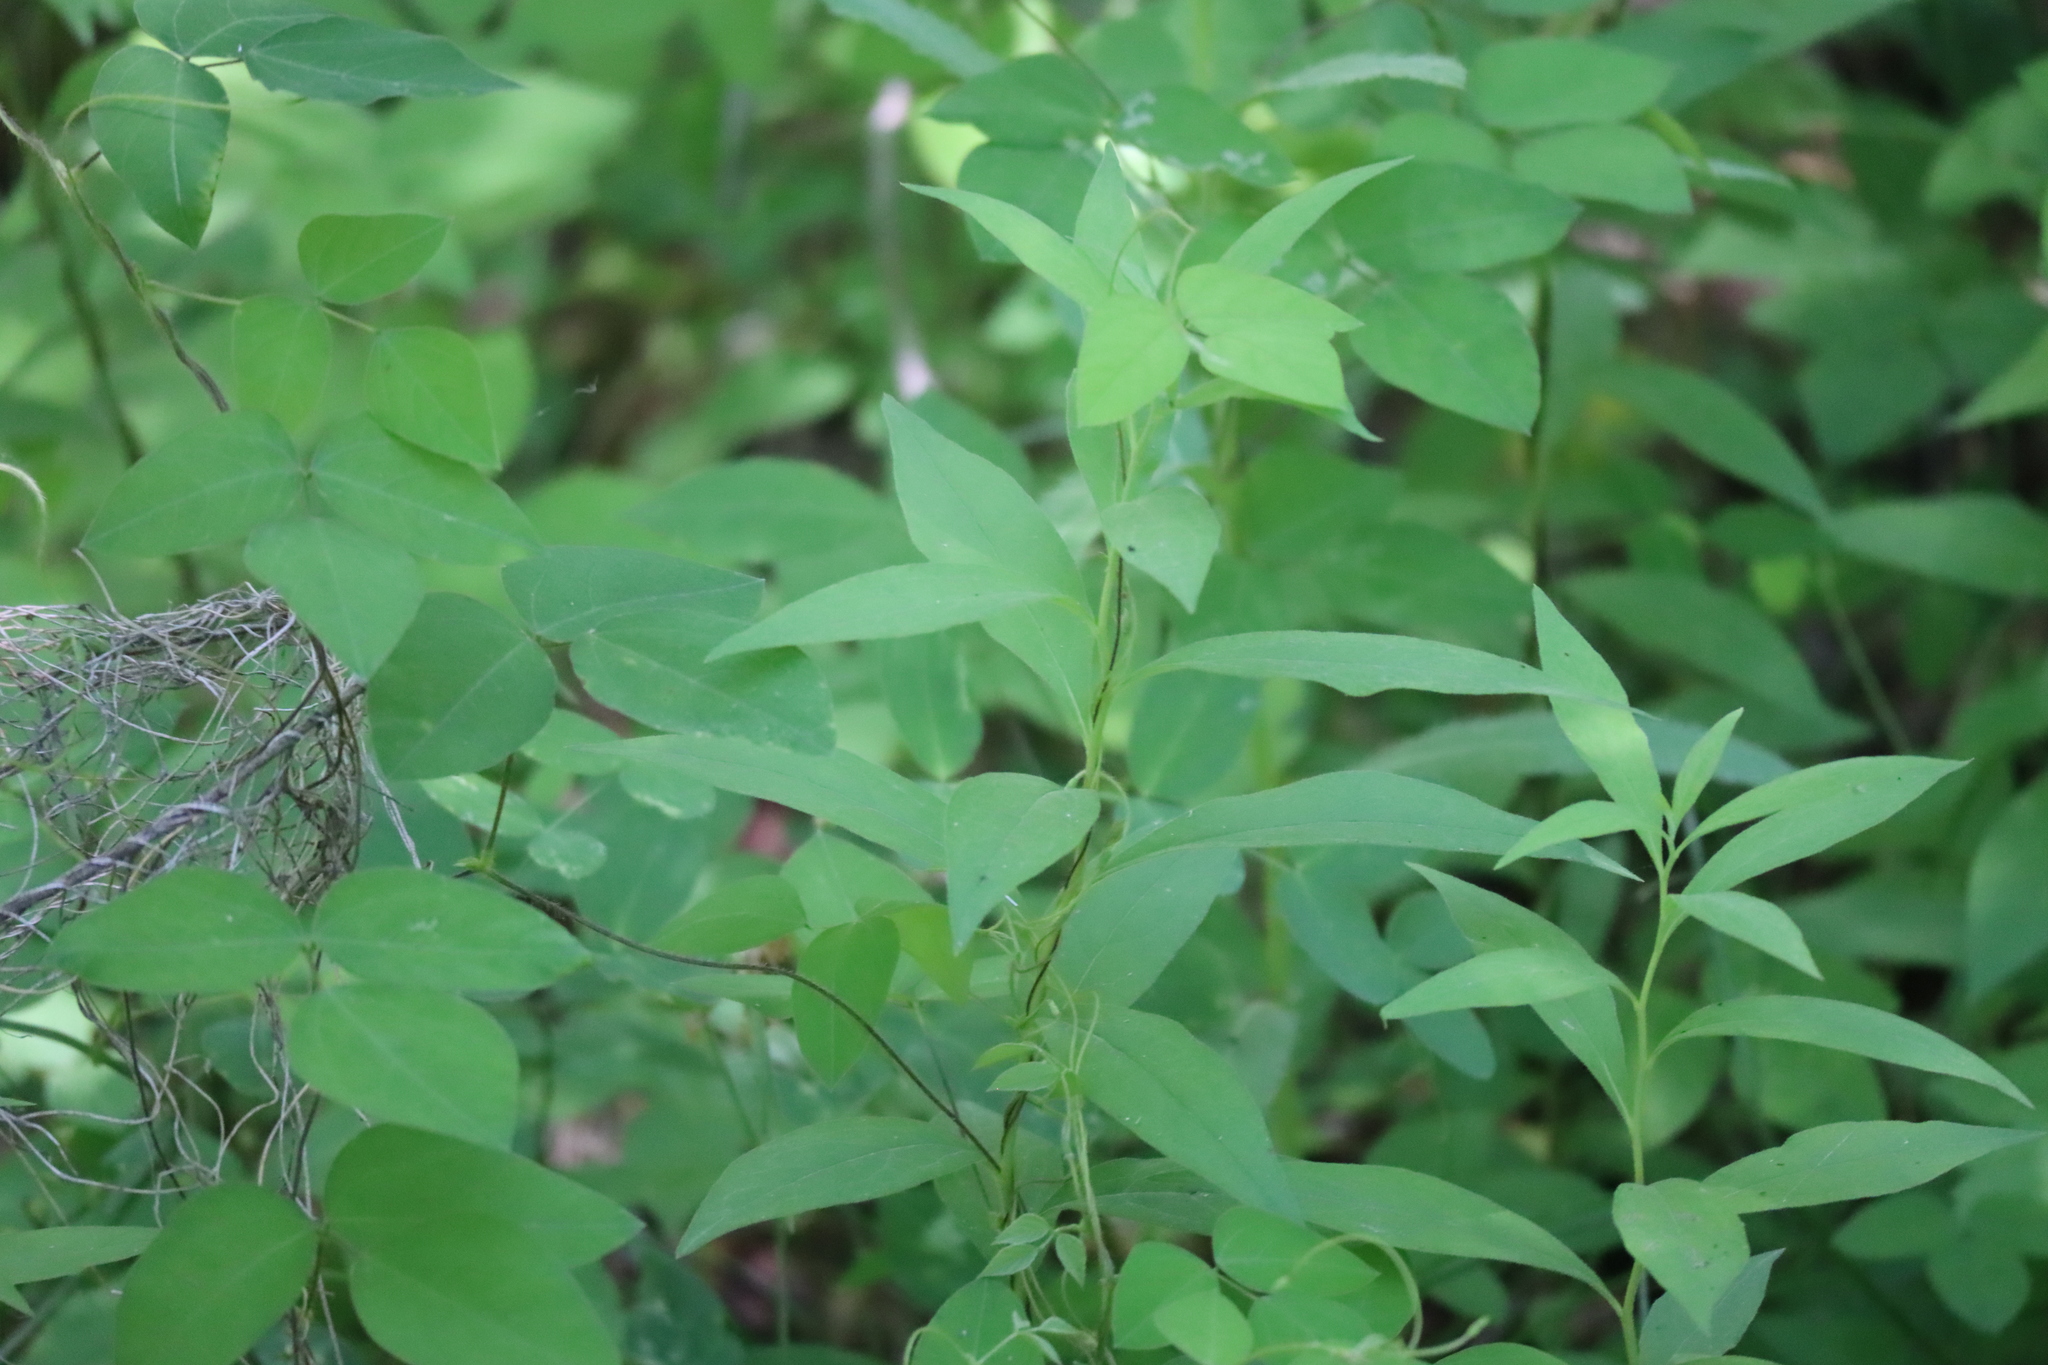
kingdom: Plantae
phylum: Tracheophyta
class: Magnoliopsida
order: Fabales
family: Fabaceae
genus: Amphicarpaea
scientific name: Amphicarpaea bracteata
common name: American hog peanut
